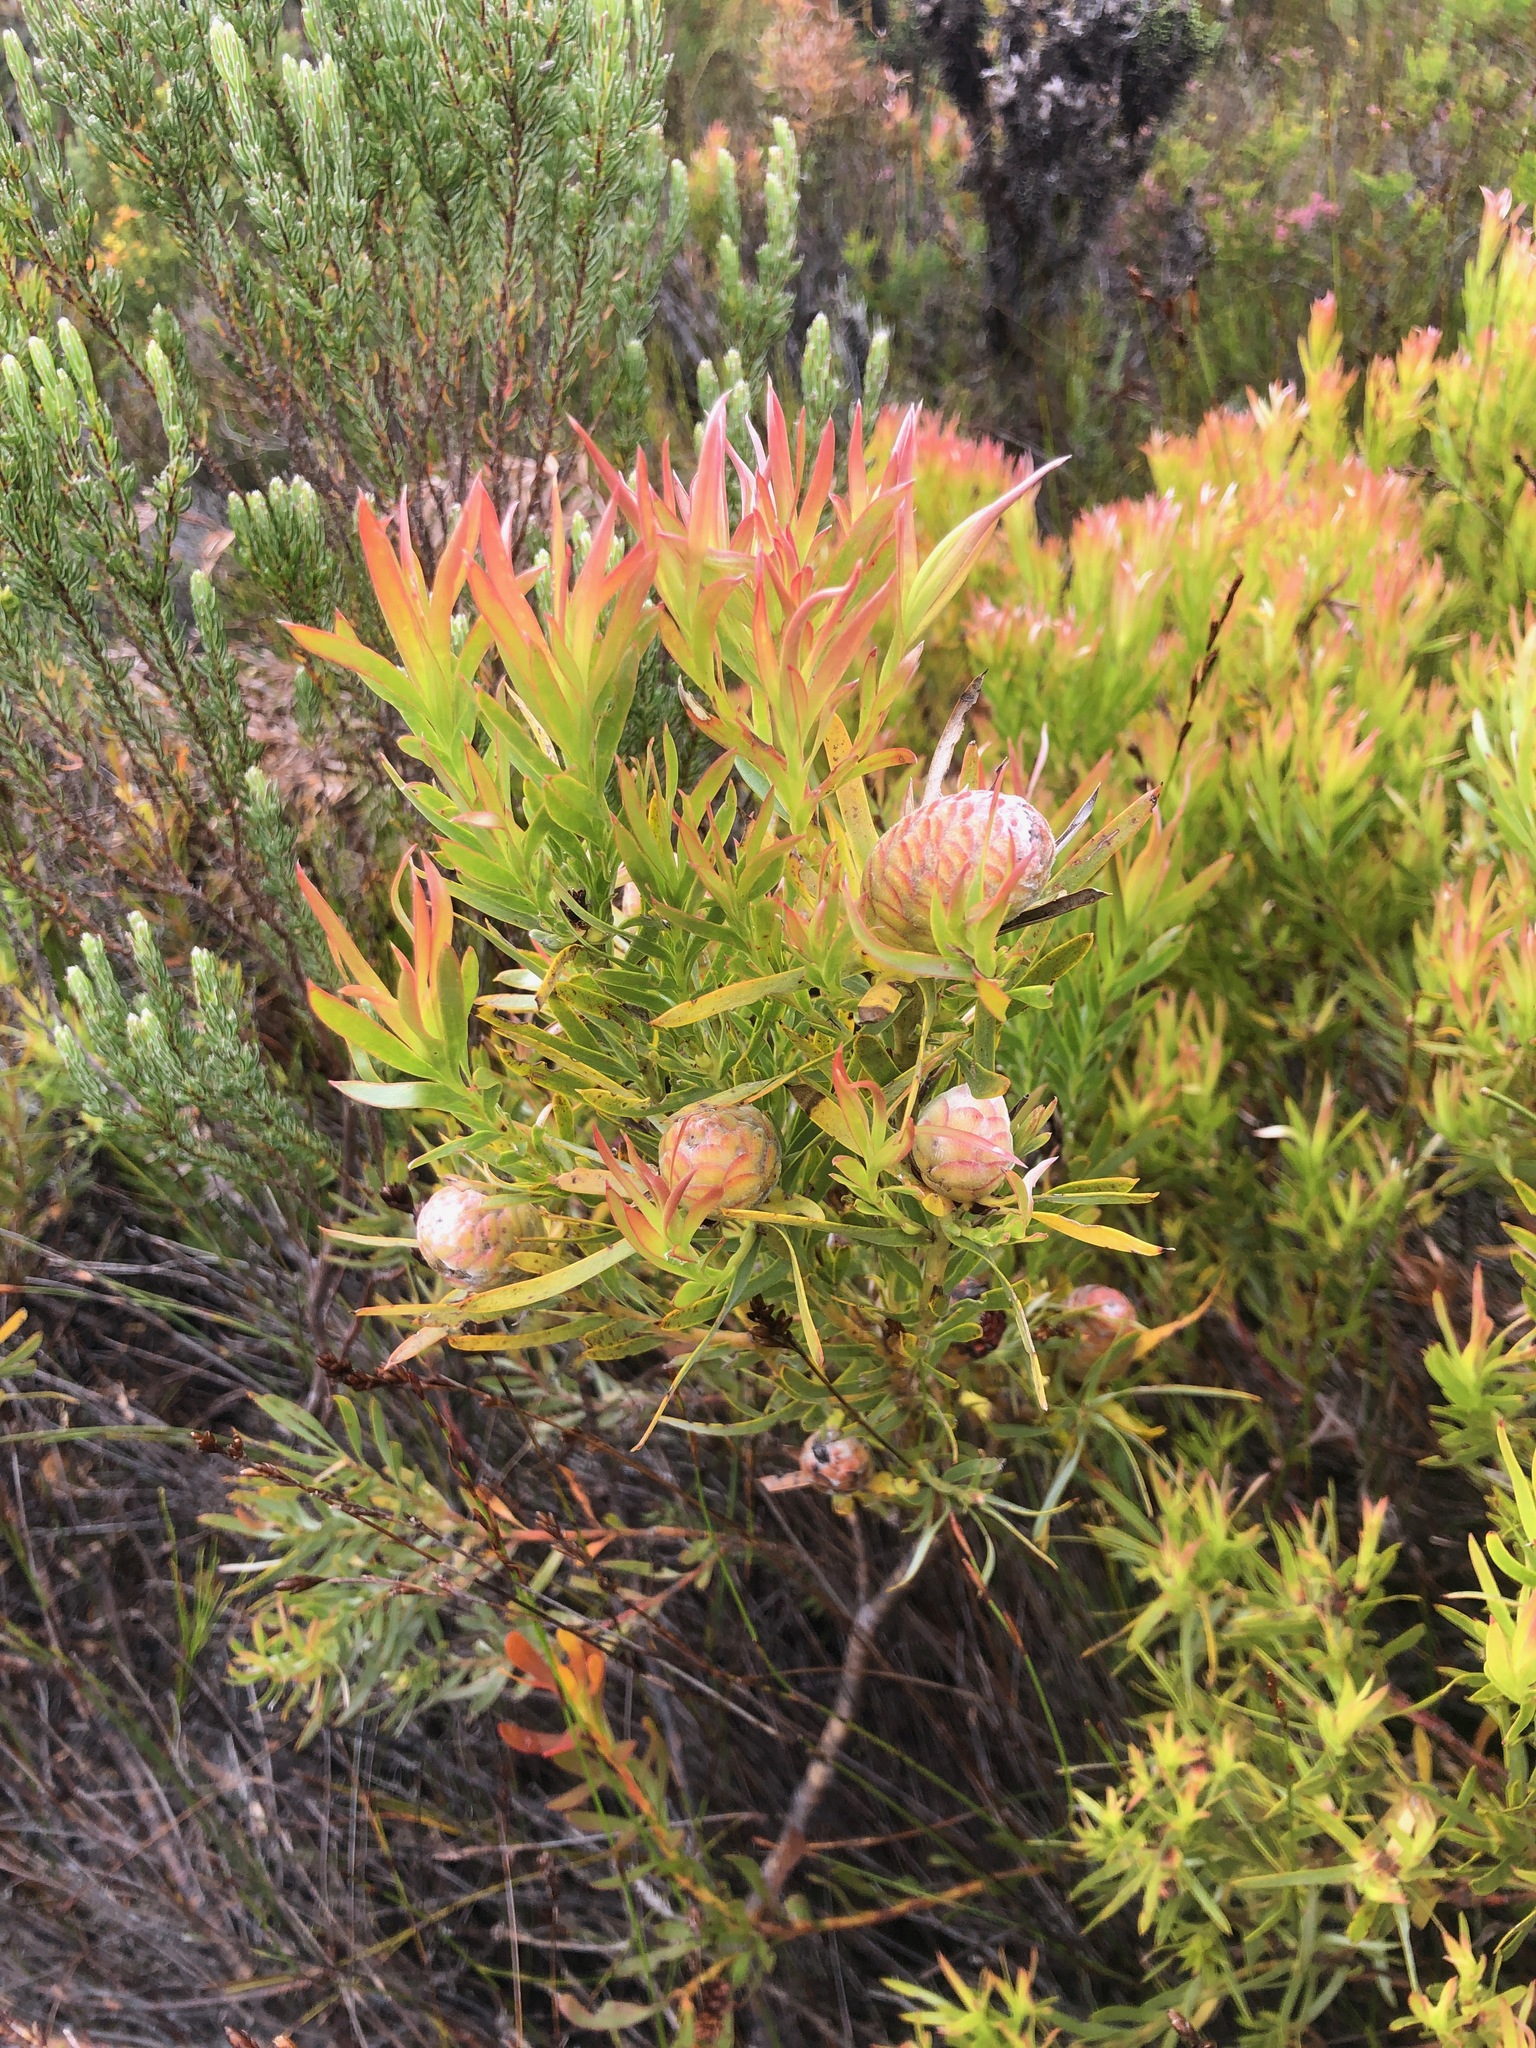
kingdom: Plantae
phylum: Tracheophyta
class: Magnoliopsida
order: Proteales
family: Proteaceae
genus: Leucadendron
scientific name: Leucadendron xanthoconus
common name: Sickle-leaf conebush
